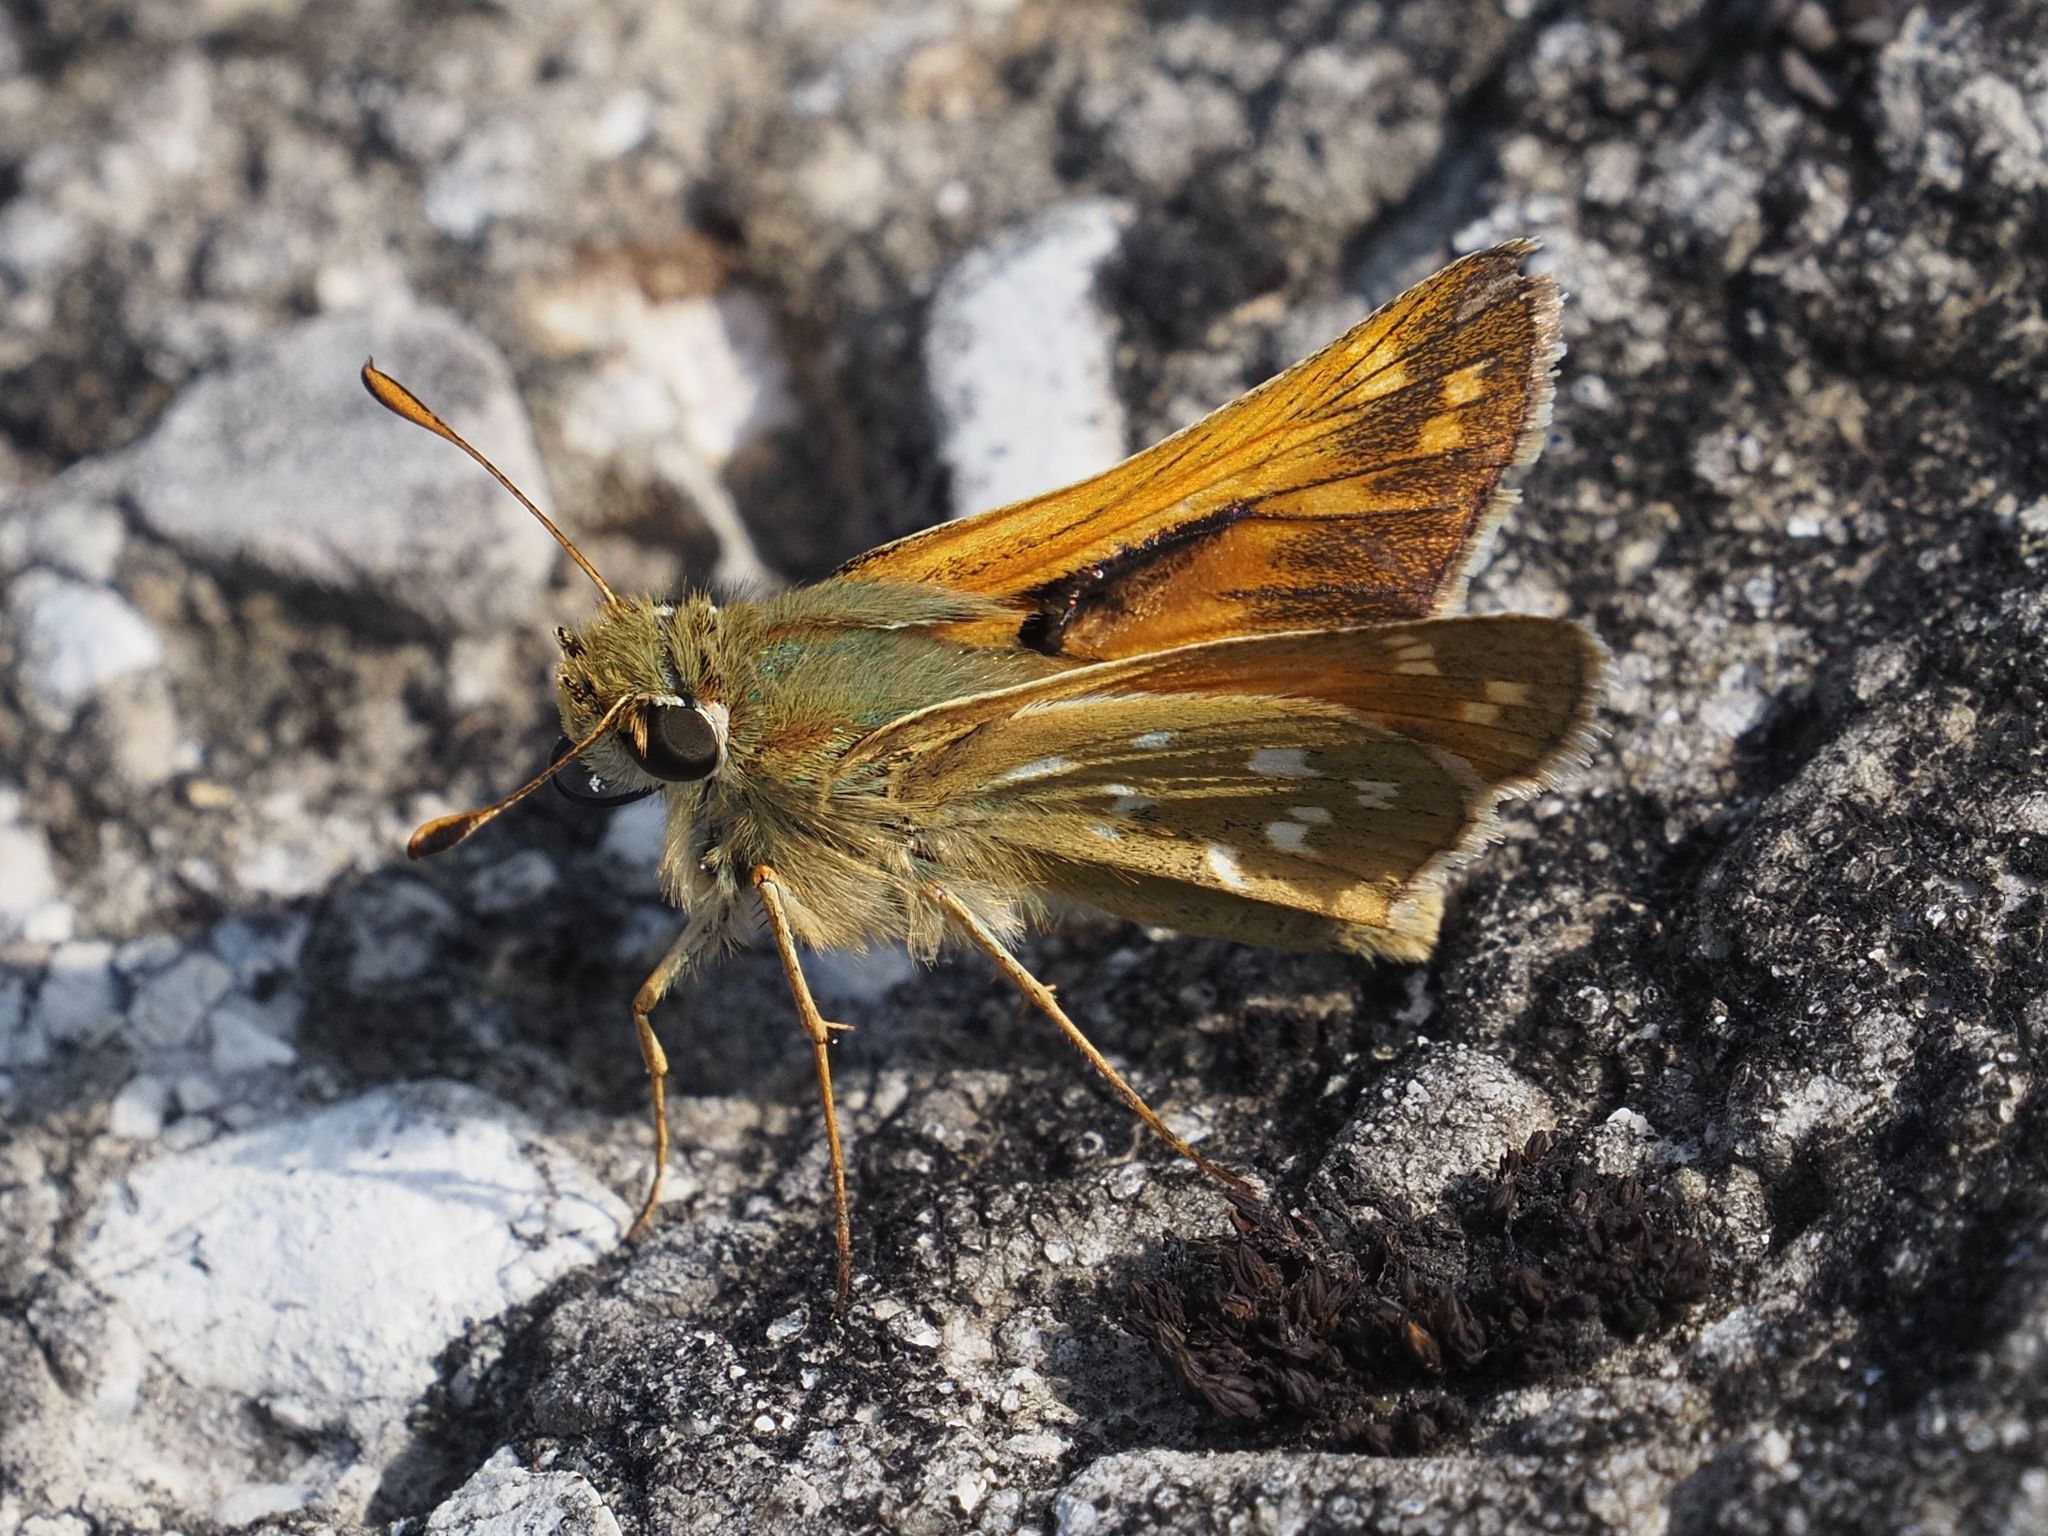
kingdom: Animalia
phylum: Arthropoda
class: Insecta
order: Lepidoptera
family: Hesperiidae
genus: Hesperia
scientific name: Hesperia comma
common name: Common branded skipper
